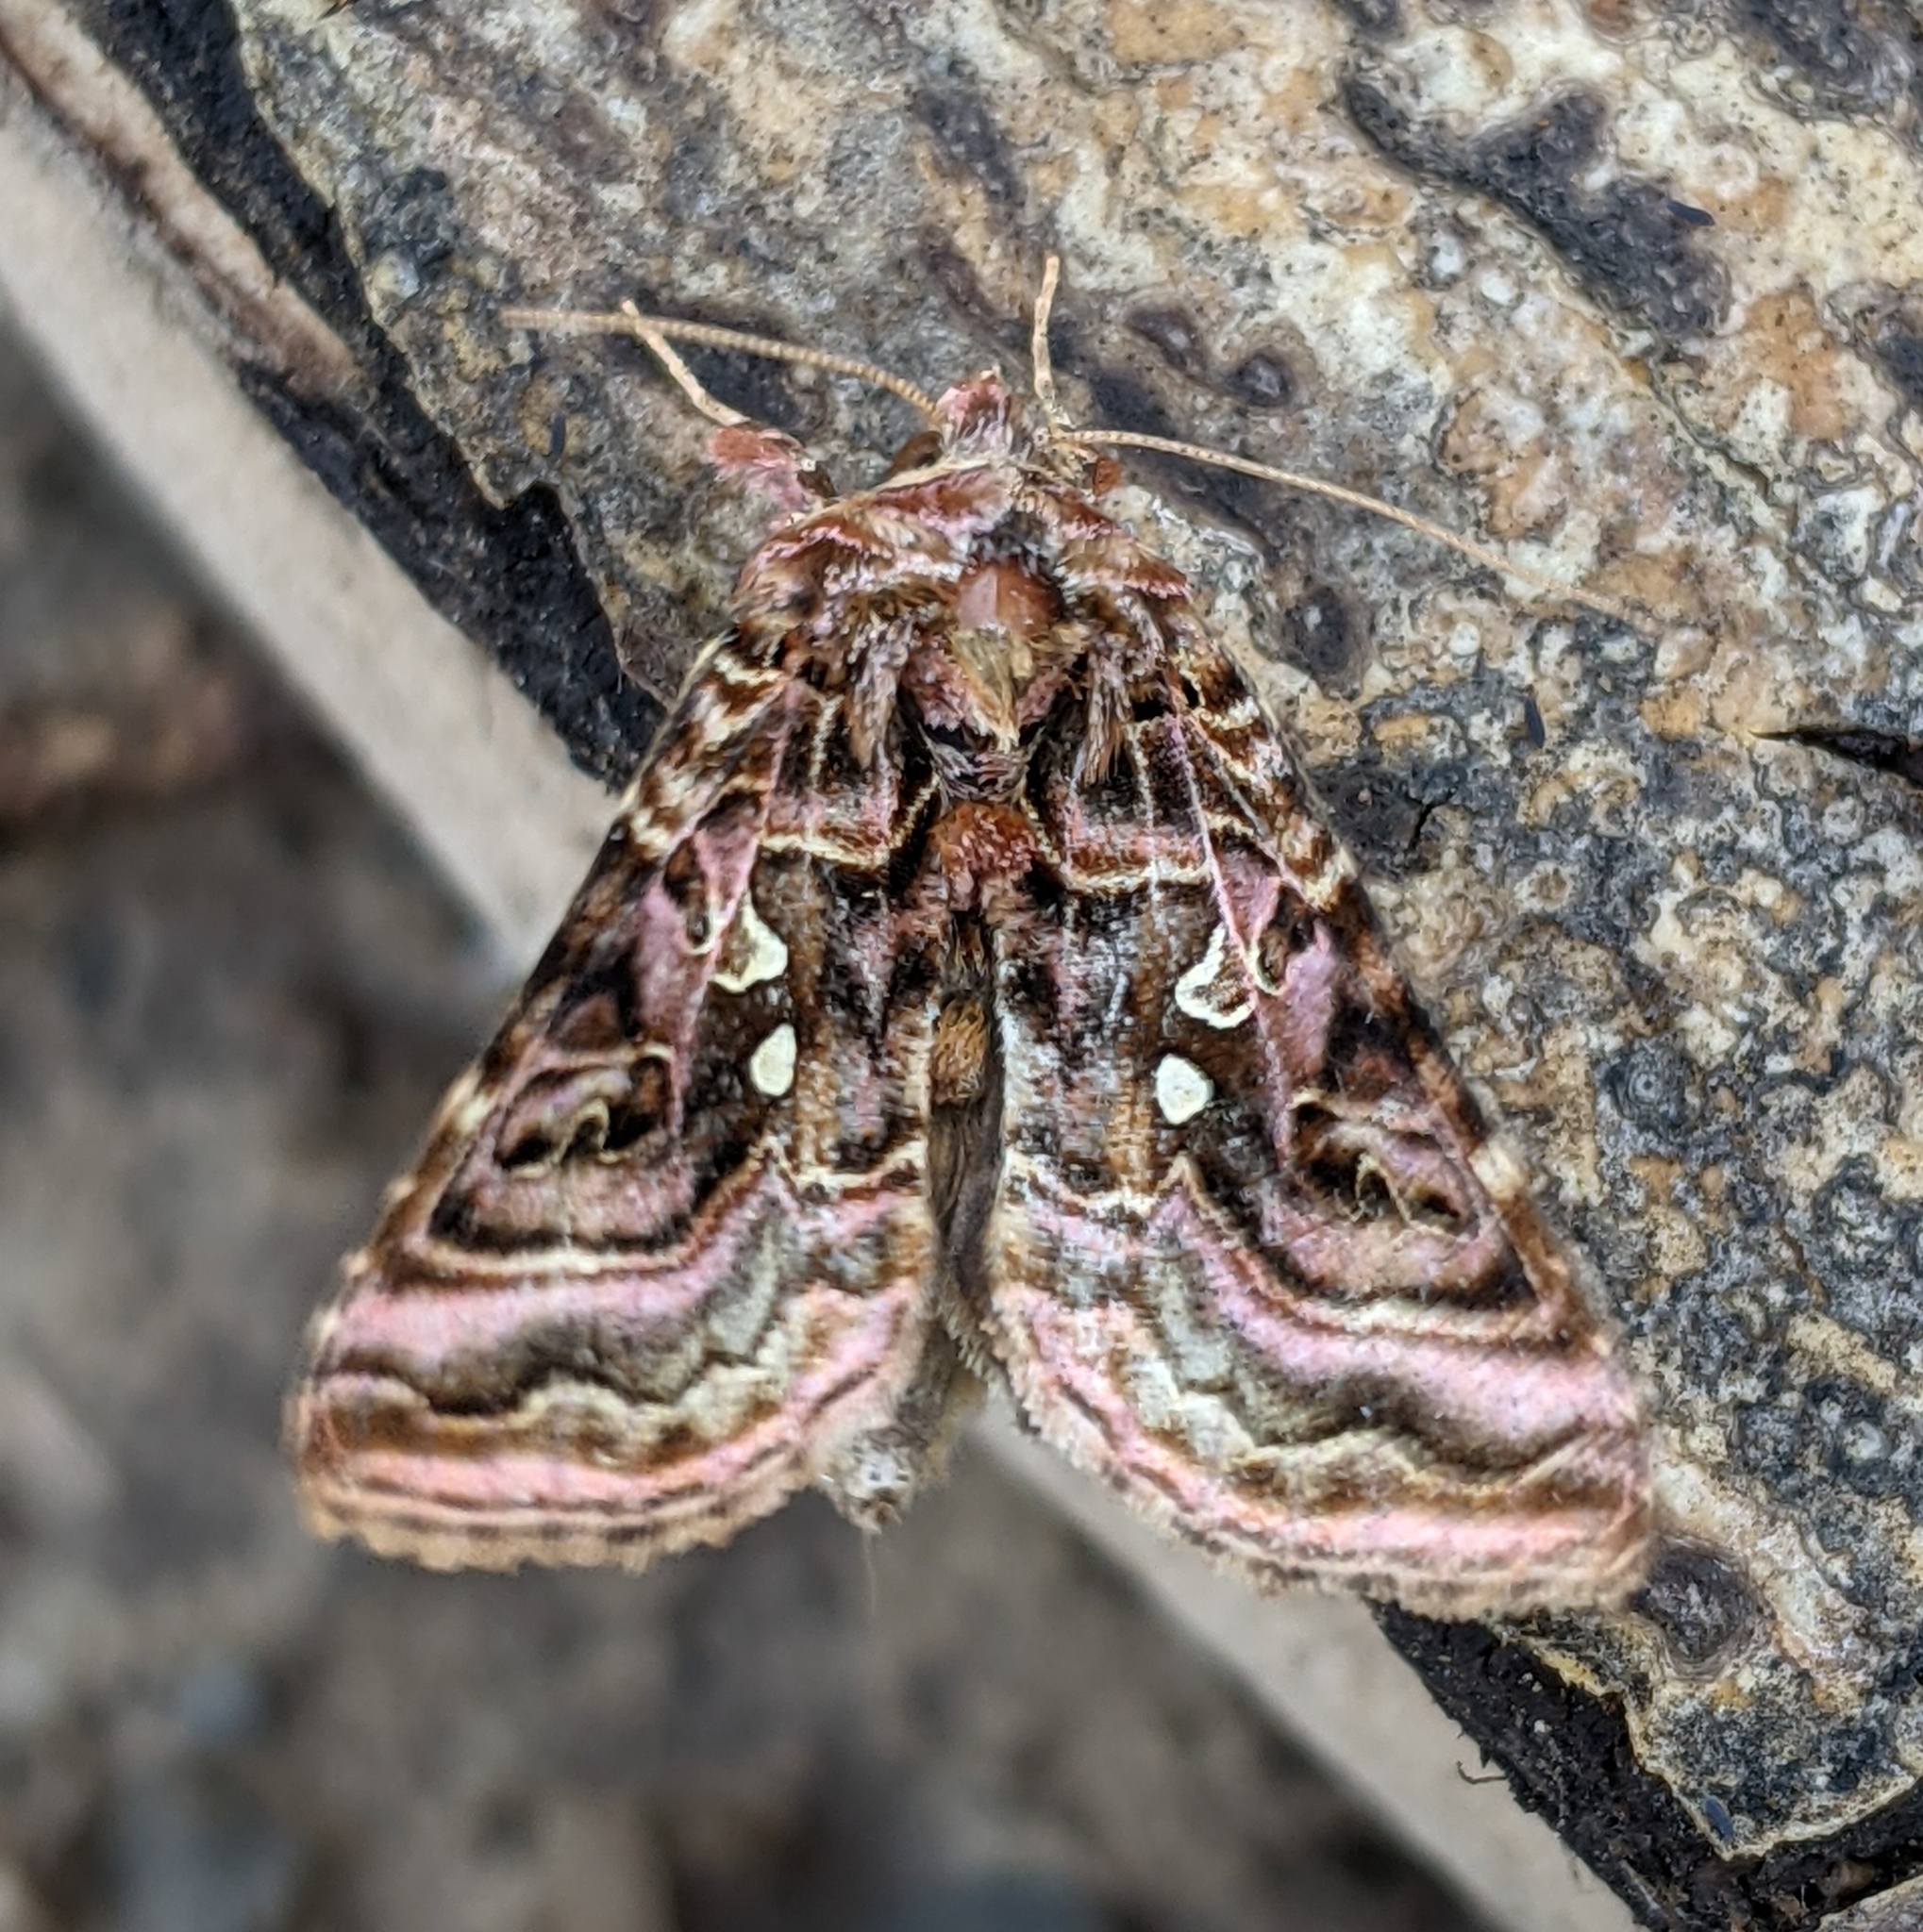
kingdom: Animalia
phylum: Arthropoda
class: Insecta
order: Lepidoptera
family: Noctuidae
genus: Autographa
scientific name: Autographa mappa
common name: Wavy chestnut y moth
